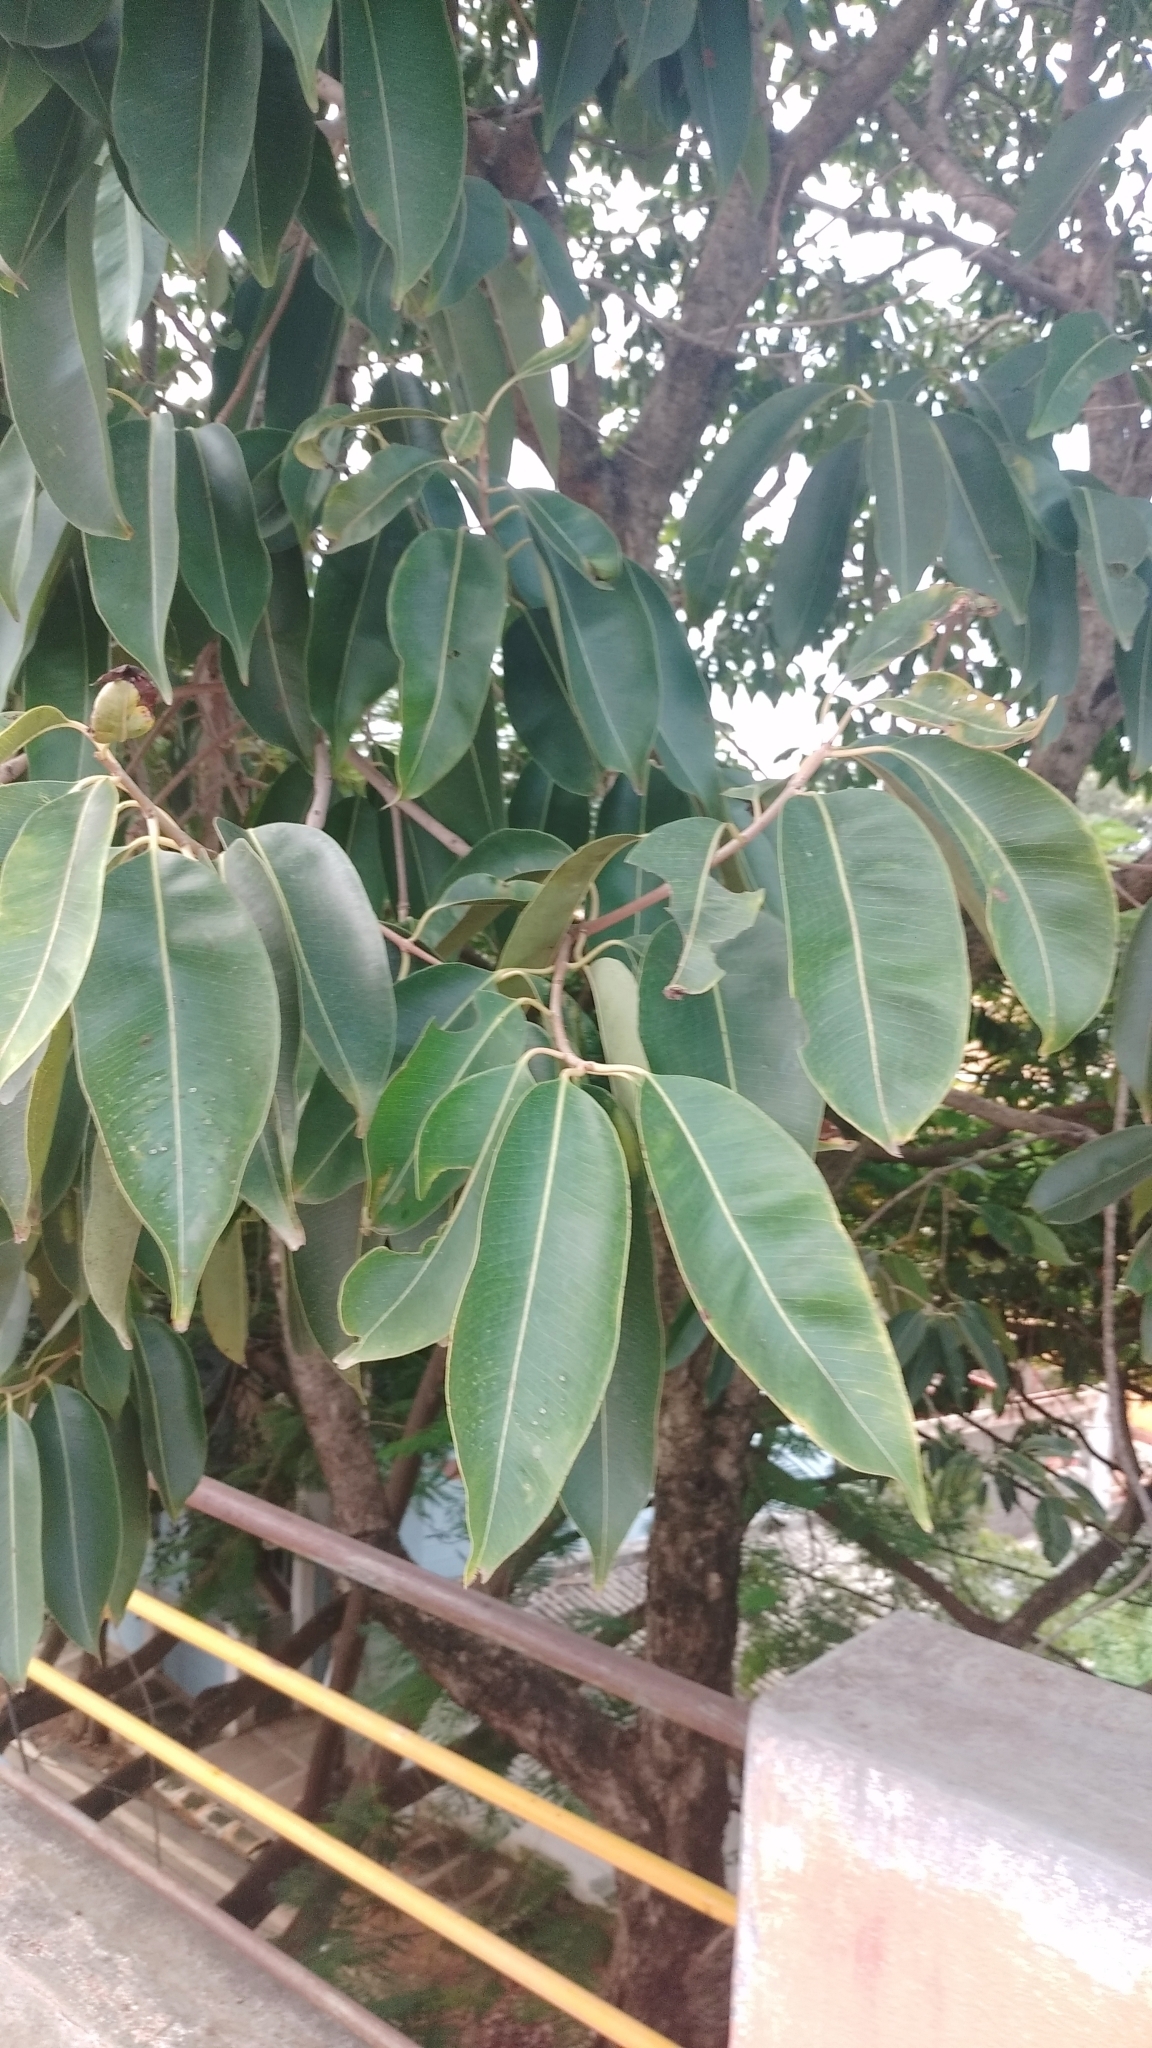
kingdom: Plantae
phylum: Tracheophyta
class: Magnoliopsida
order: Myrtales
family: Myrtaceae
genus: Syzygium
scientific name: Syzygium cumini
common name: Java plum
